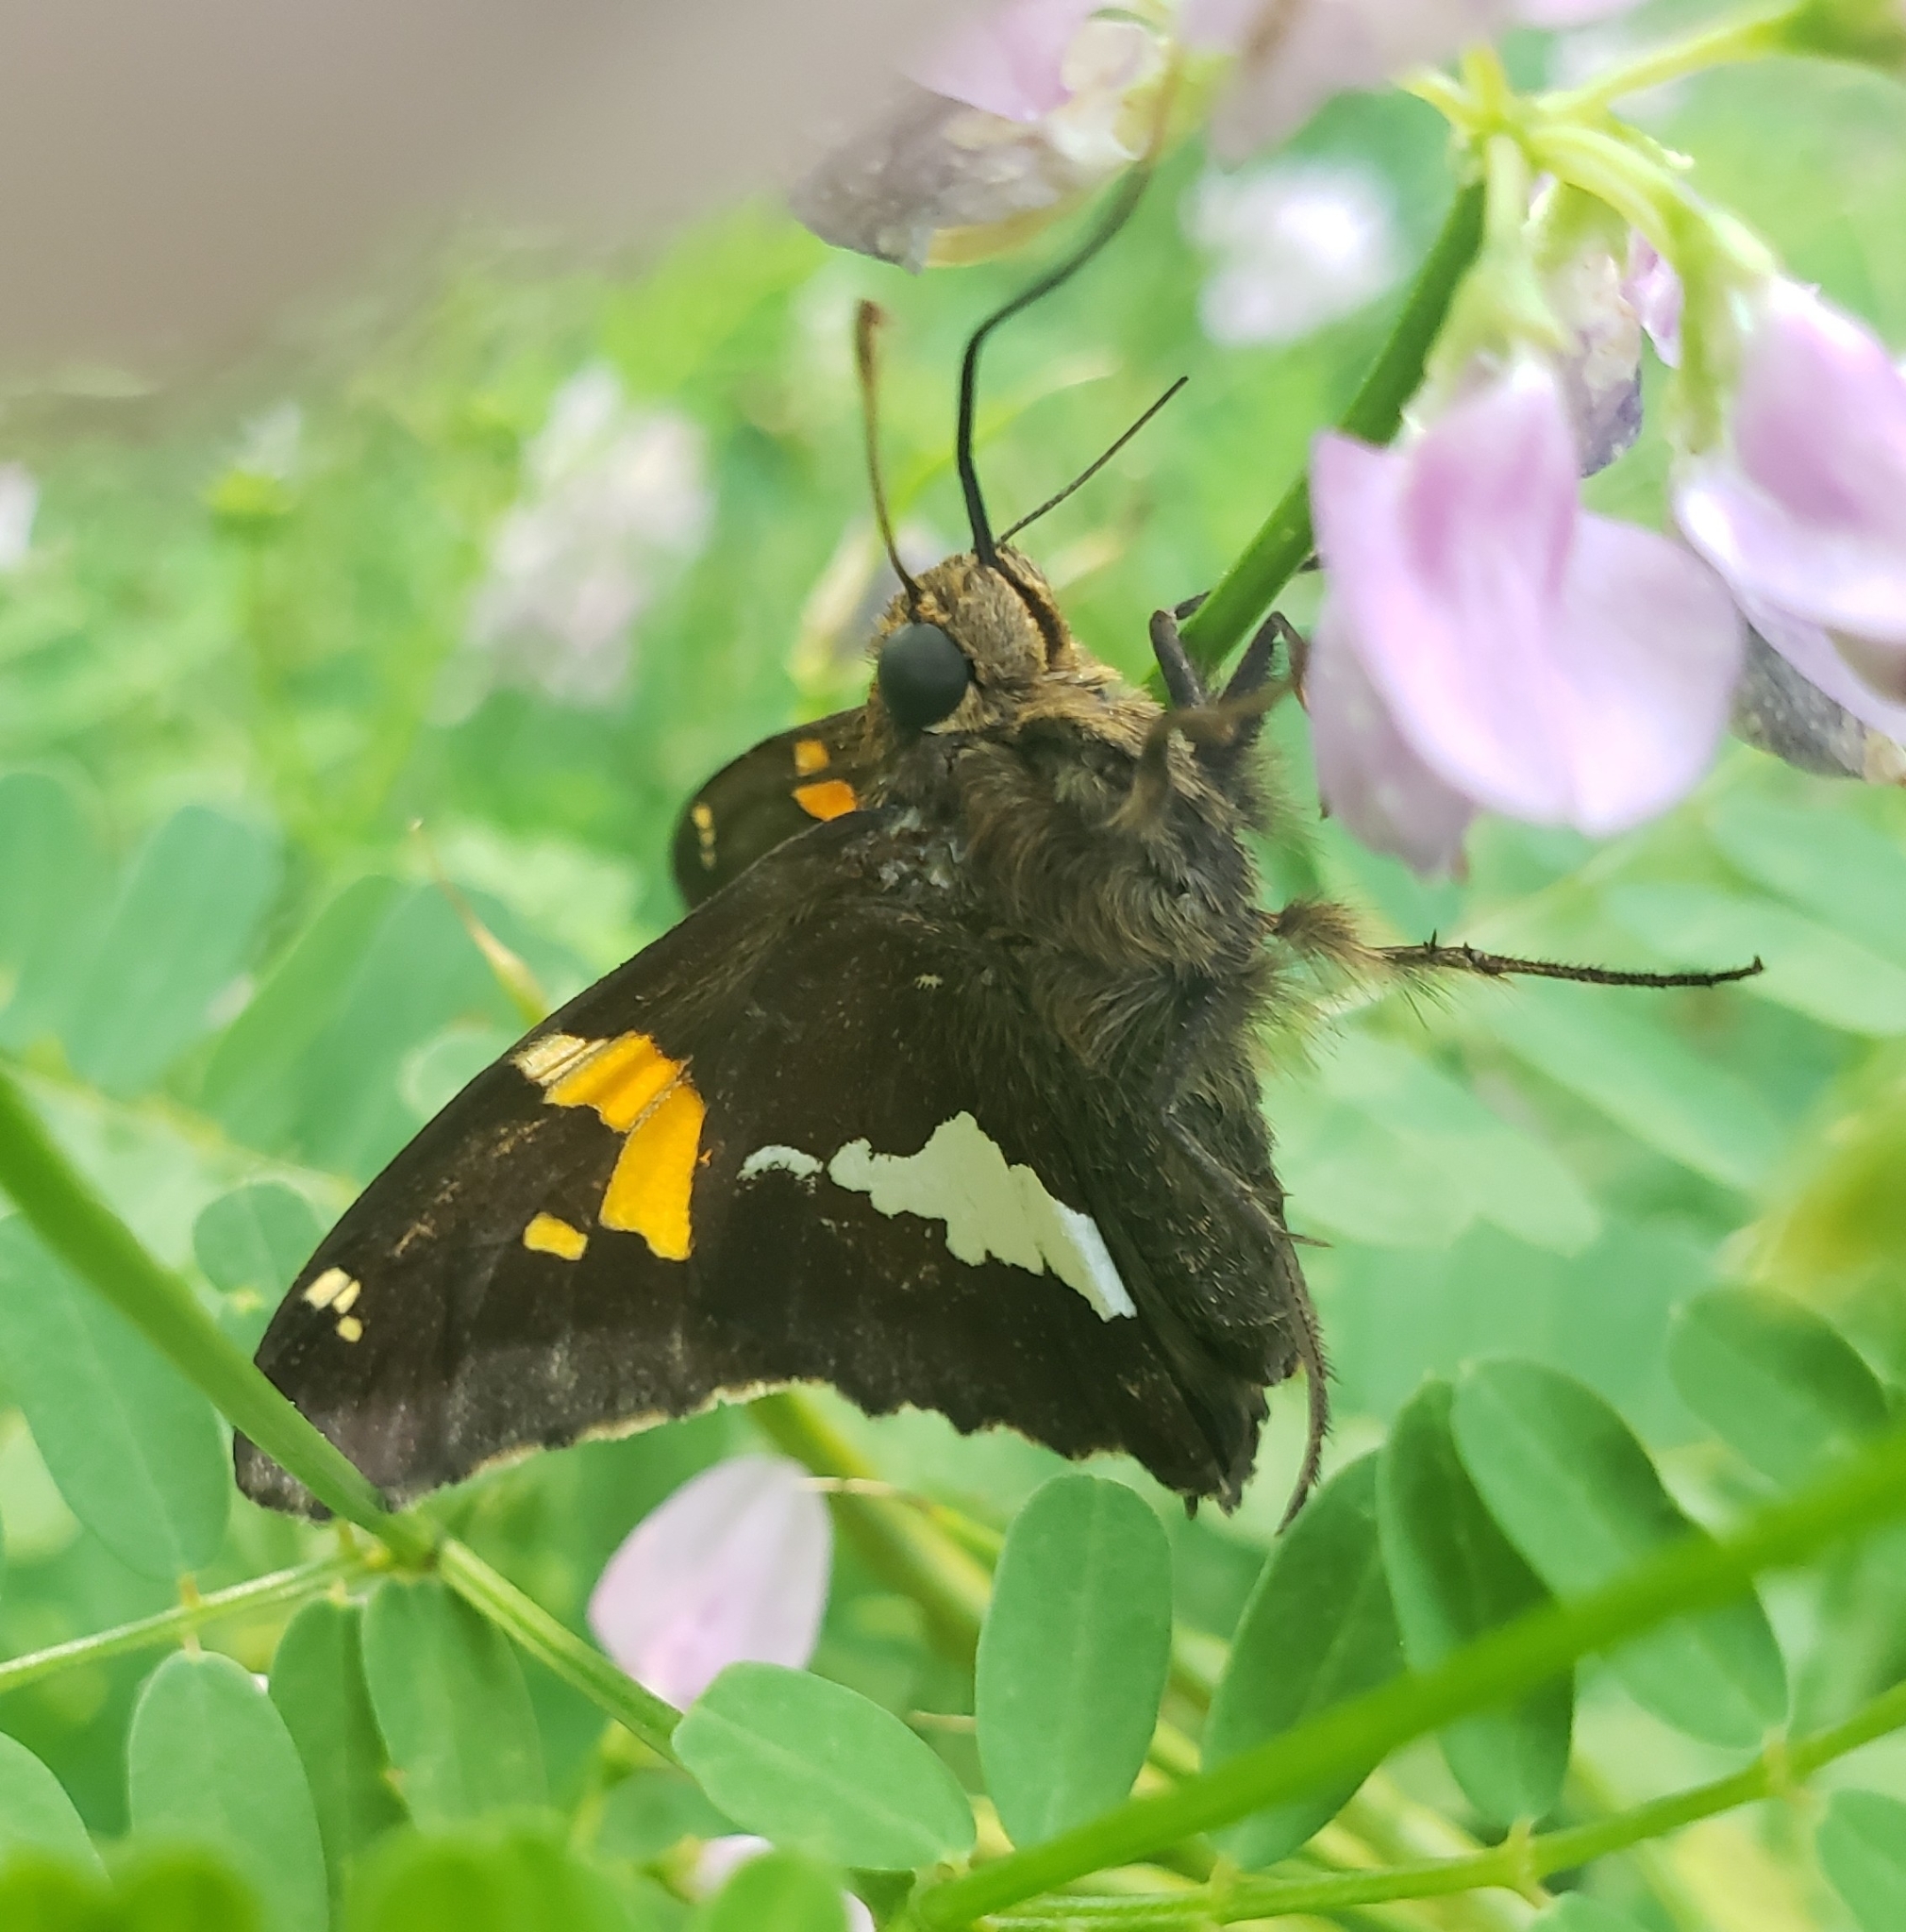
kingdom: Animalia
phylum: Arthropoda
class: Insecta
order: Lepidoptera
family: Hesperiidae
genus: Epargyreus
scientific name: Epargyreus clarus
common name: Silver-spotted skipper
